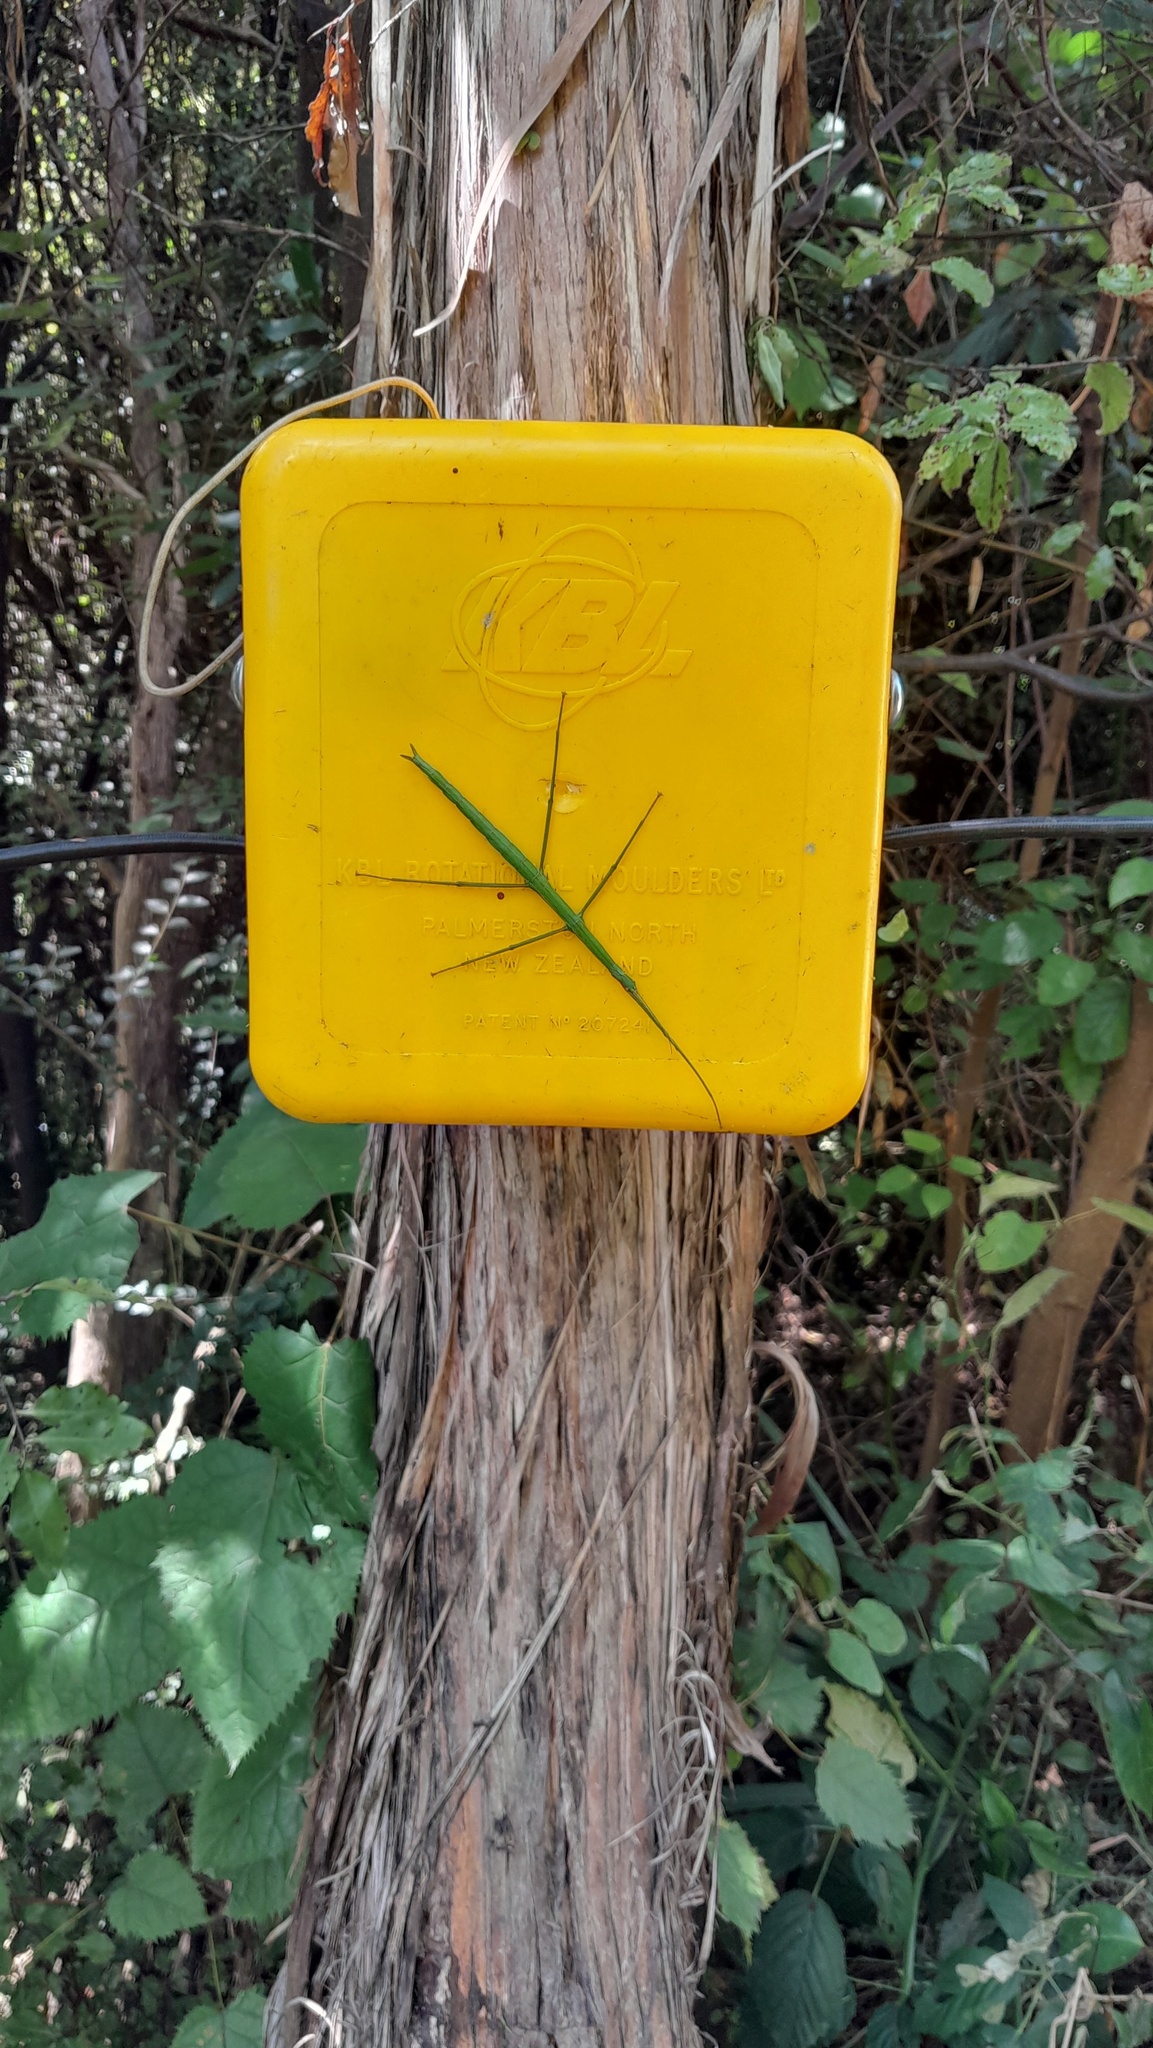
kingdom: Animalia
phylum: Arthropoda
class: Insecta
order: Phasmida
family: Phasmatidae
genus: Clitarchus
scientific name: Clitarchus hookeri
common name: Smooth stick insect
